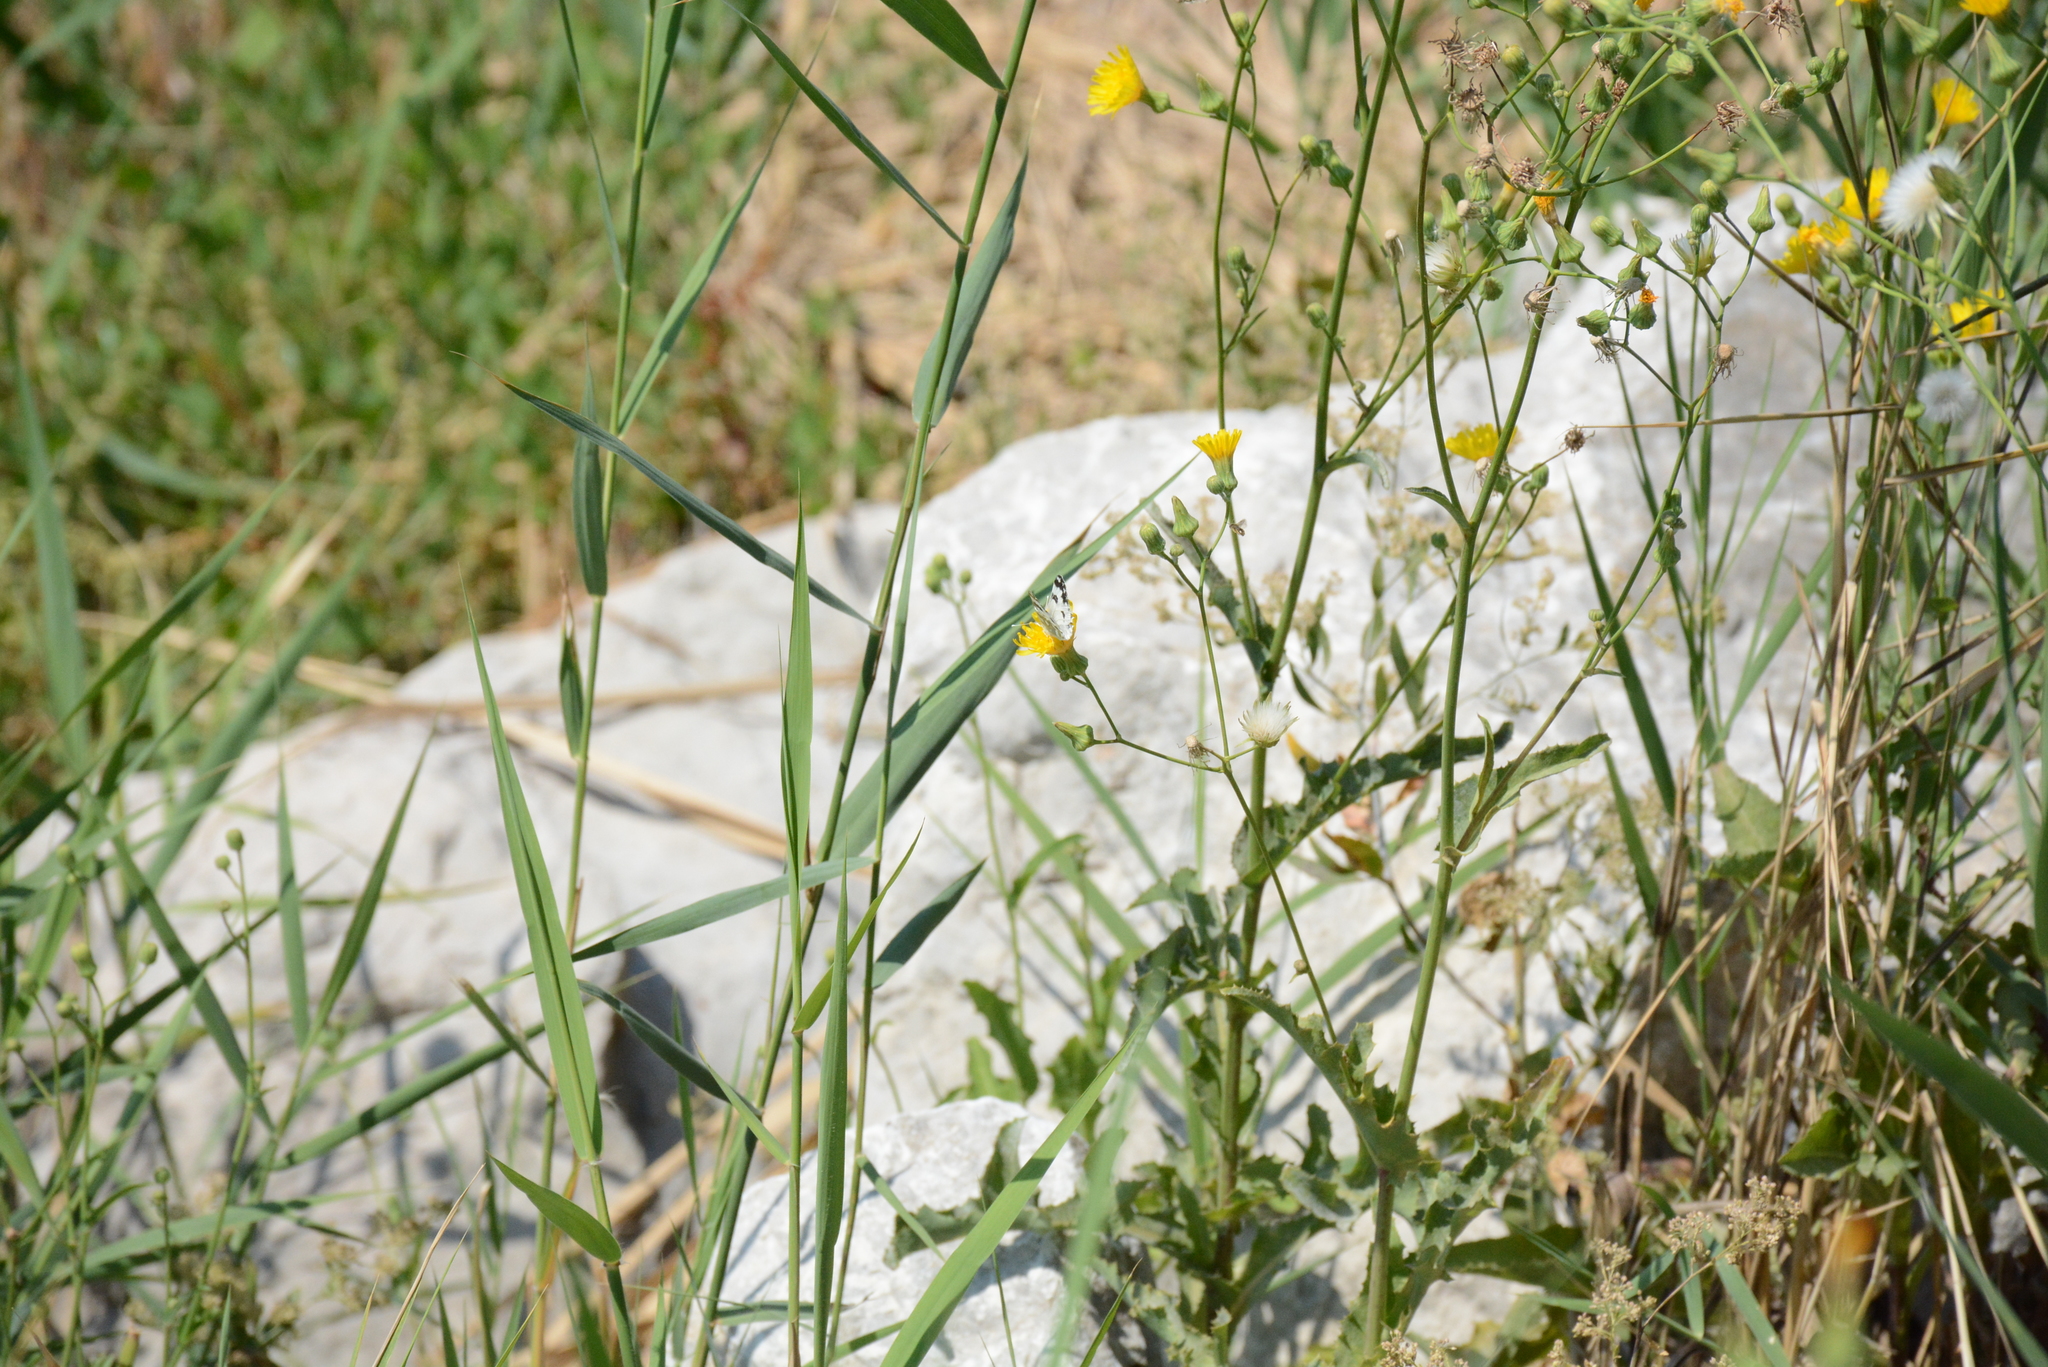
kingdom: Animalia
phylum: Arthropoda
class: Insecta
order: Lepidoptera
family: Pieridae
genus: Pontia
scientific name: Pontia edusa
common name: Eastern bath white
